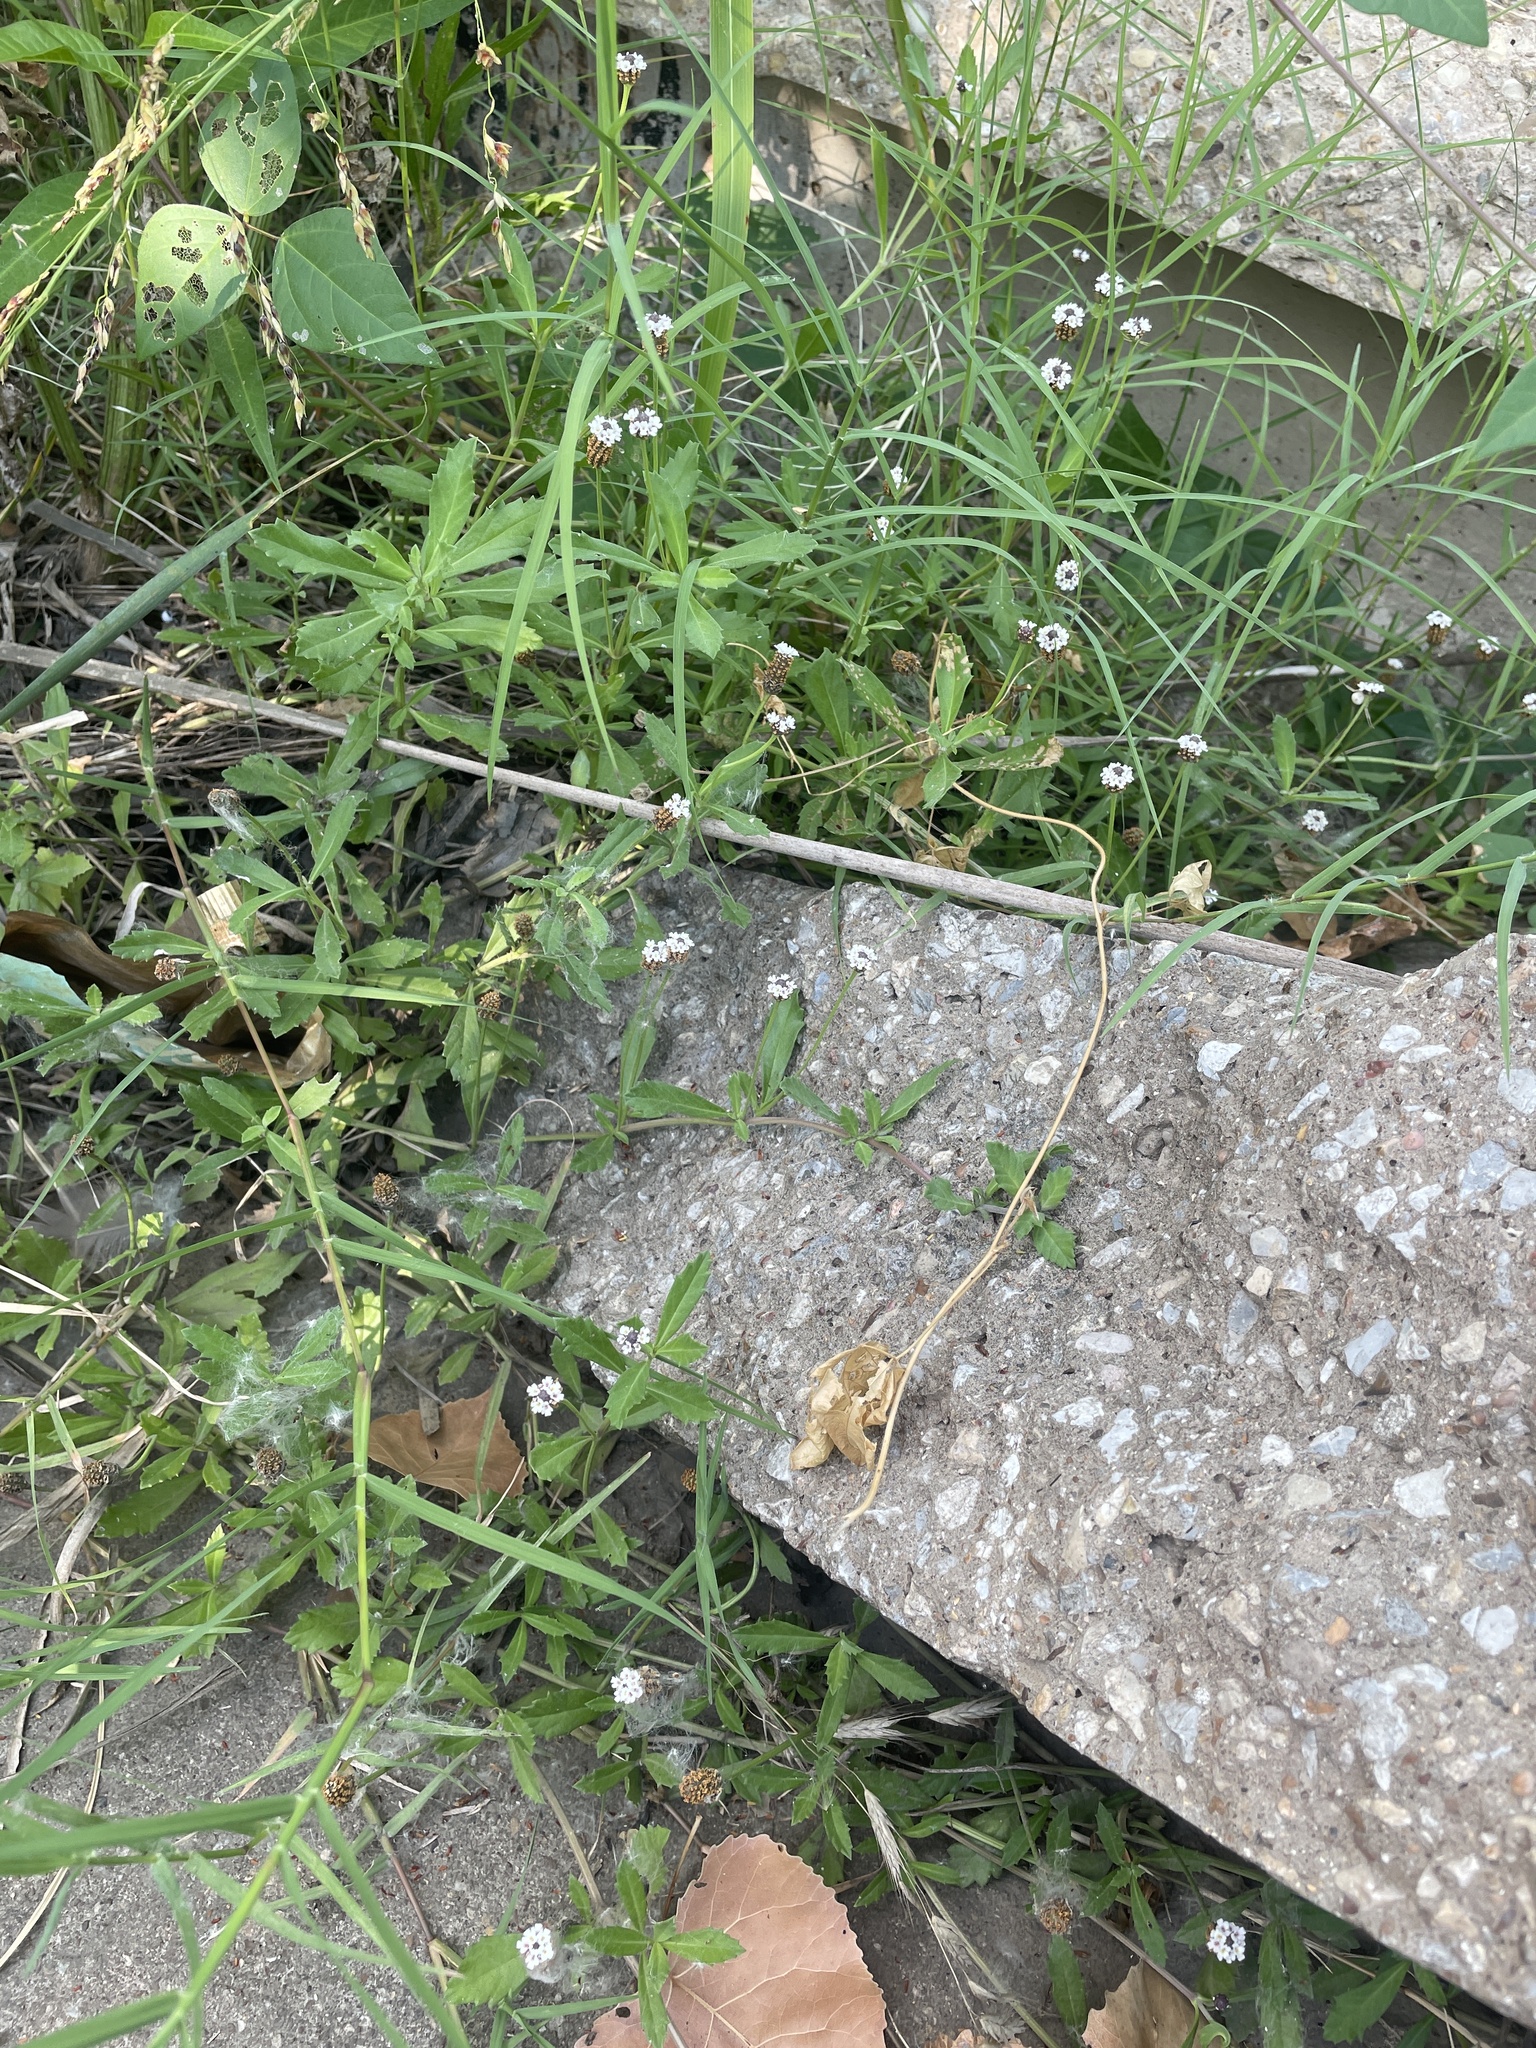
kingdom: Plantae
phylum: Tracheophyta
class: Magnoliopsida
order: Lamiales
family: Verbenaceae
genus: Phyla
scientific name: Phyla nodiflora
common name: Frogfruit
